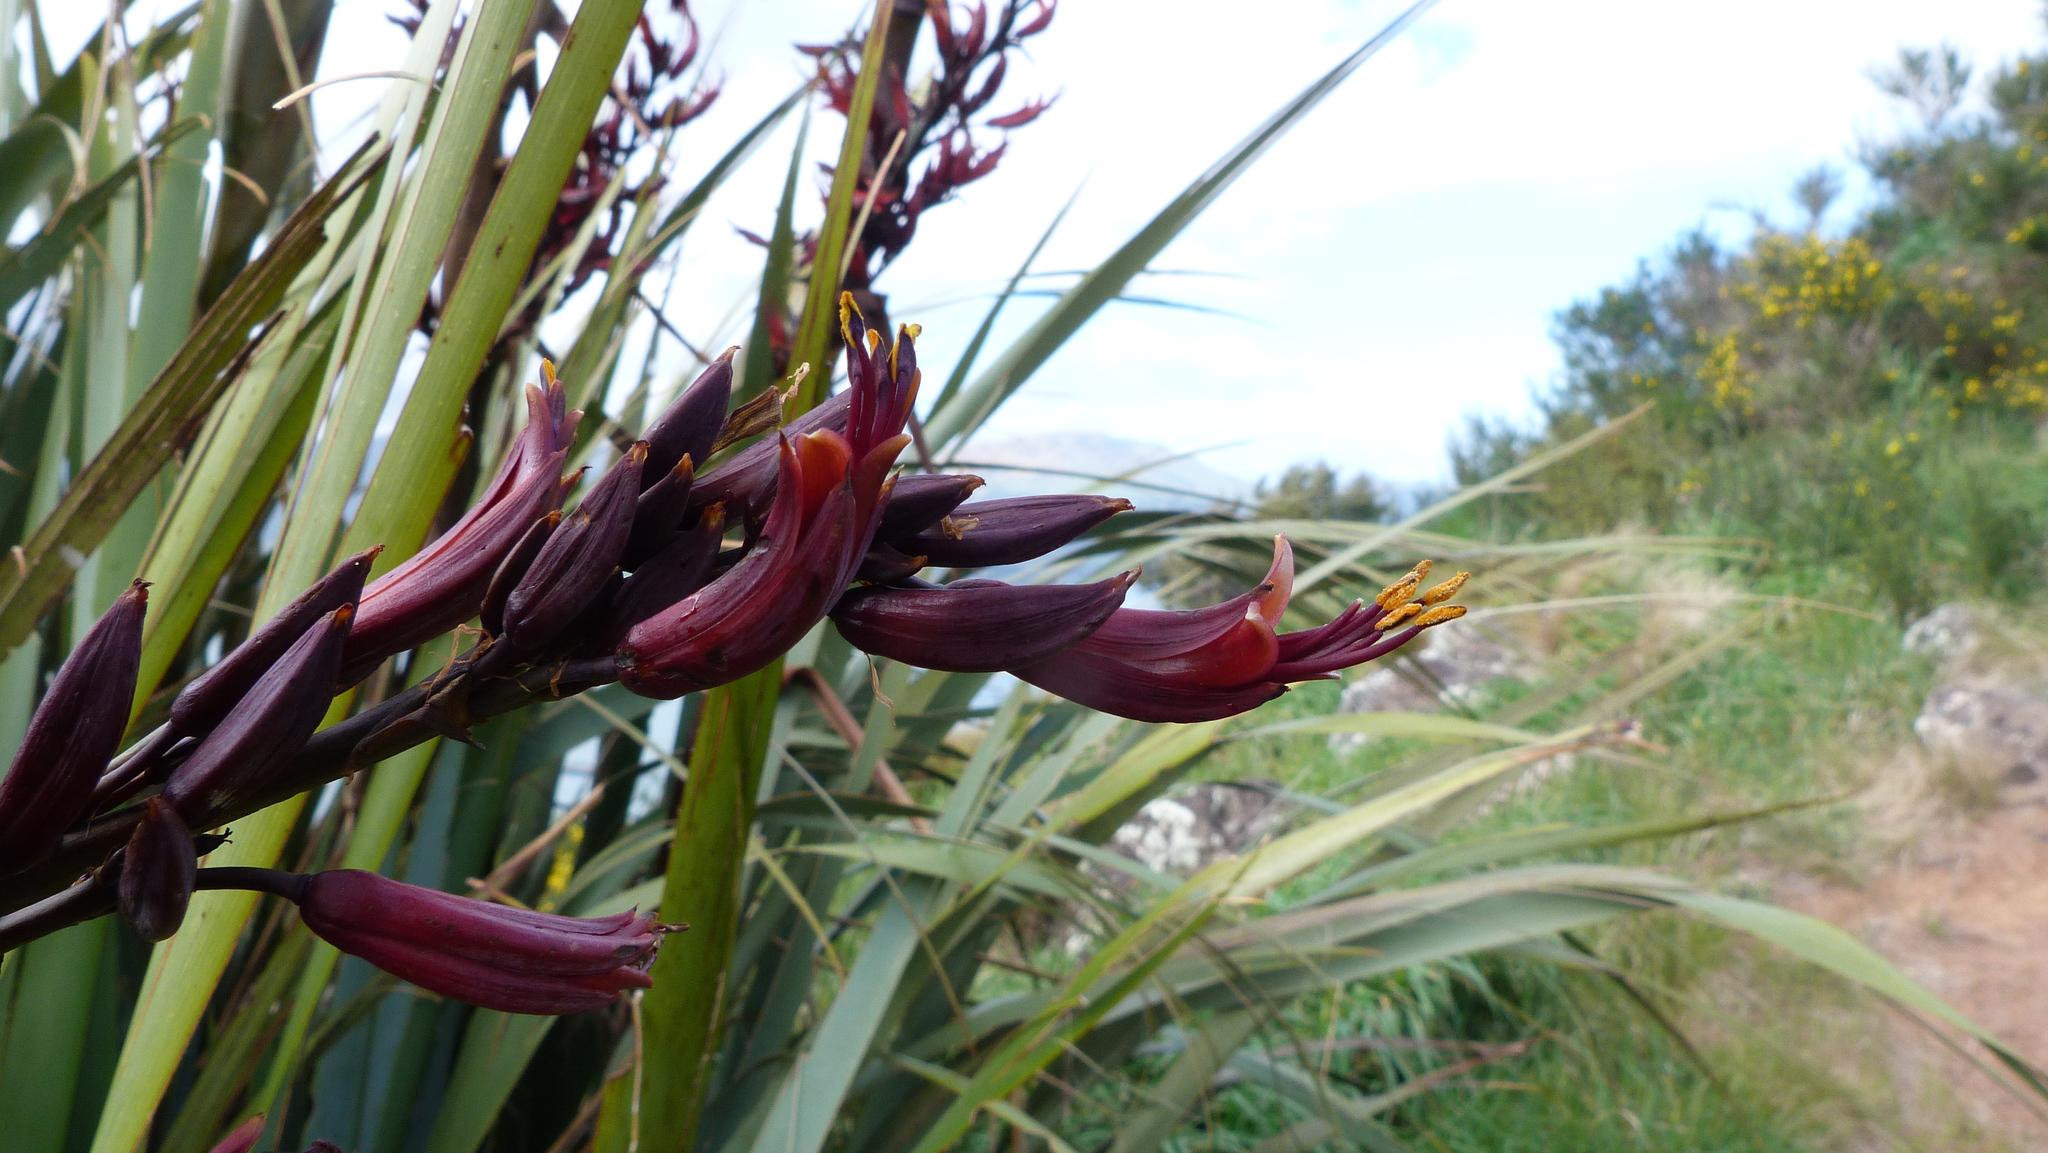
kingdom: Plantae
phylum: Tracheophyta
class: Liliopsida
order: Asparagales
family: Asphodelaceae
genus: Phormium
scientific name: Phormium tenax
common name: New zealand flax
